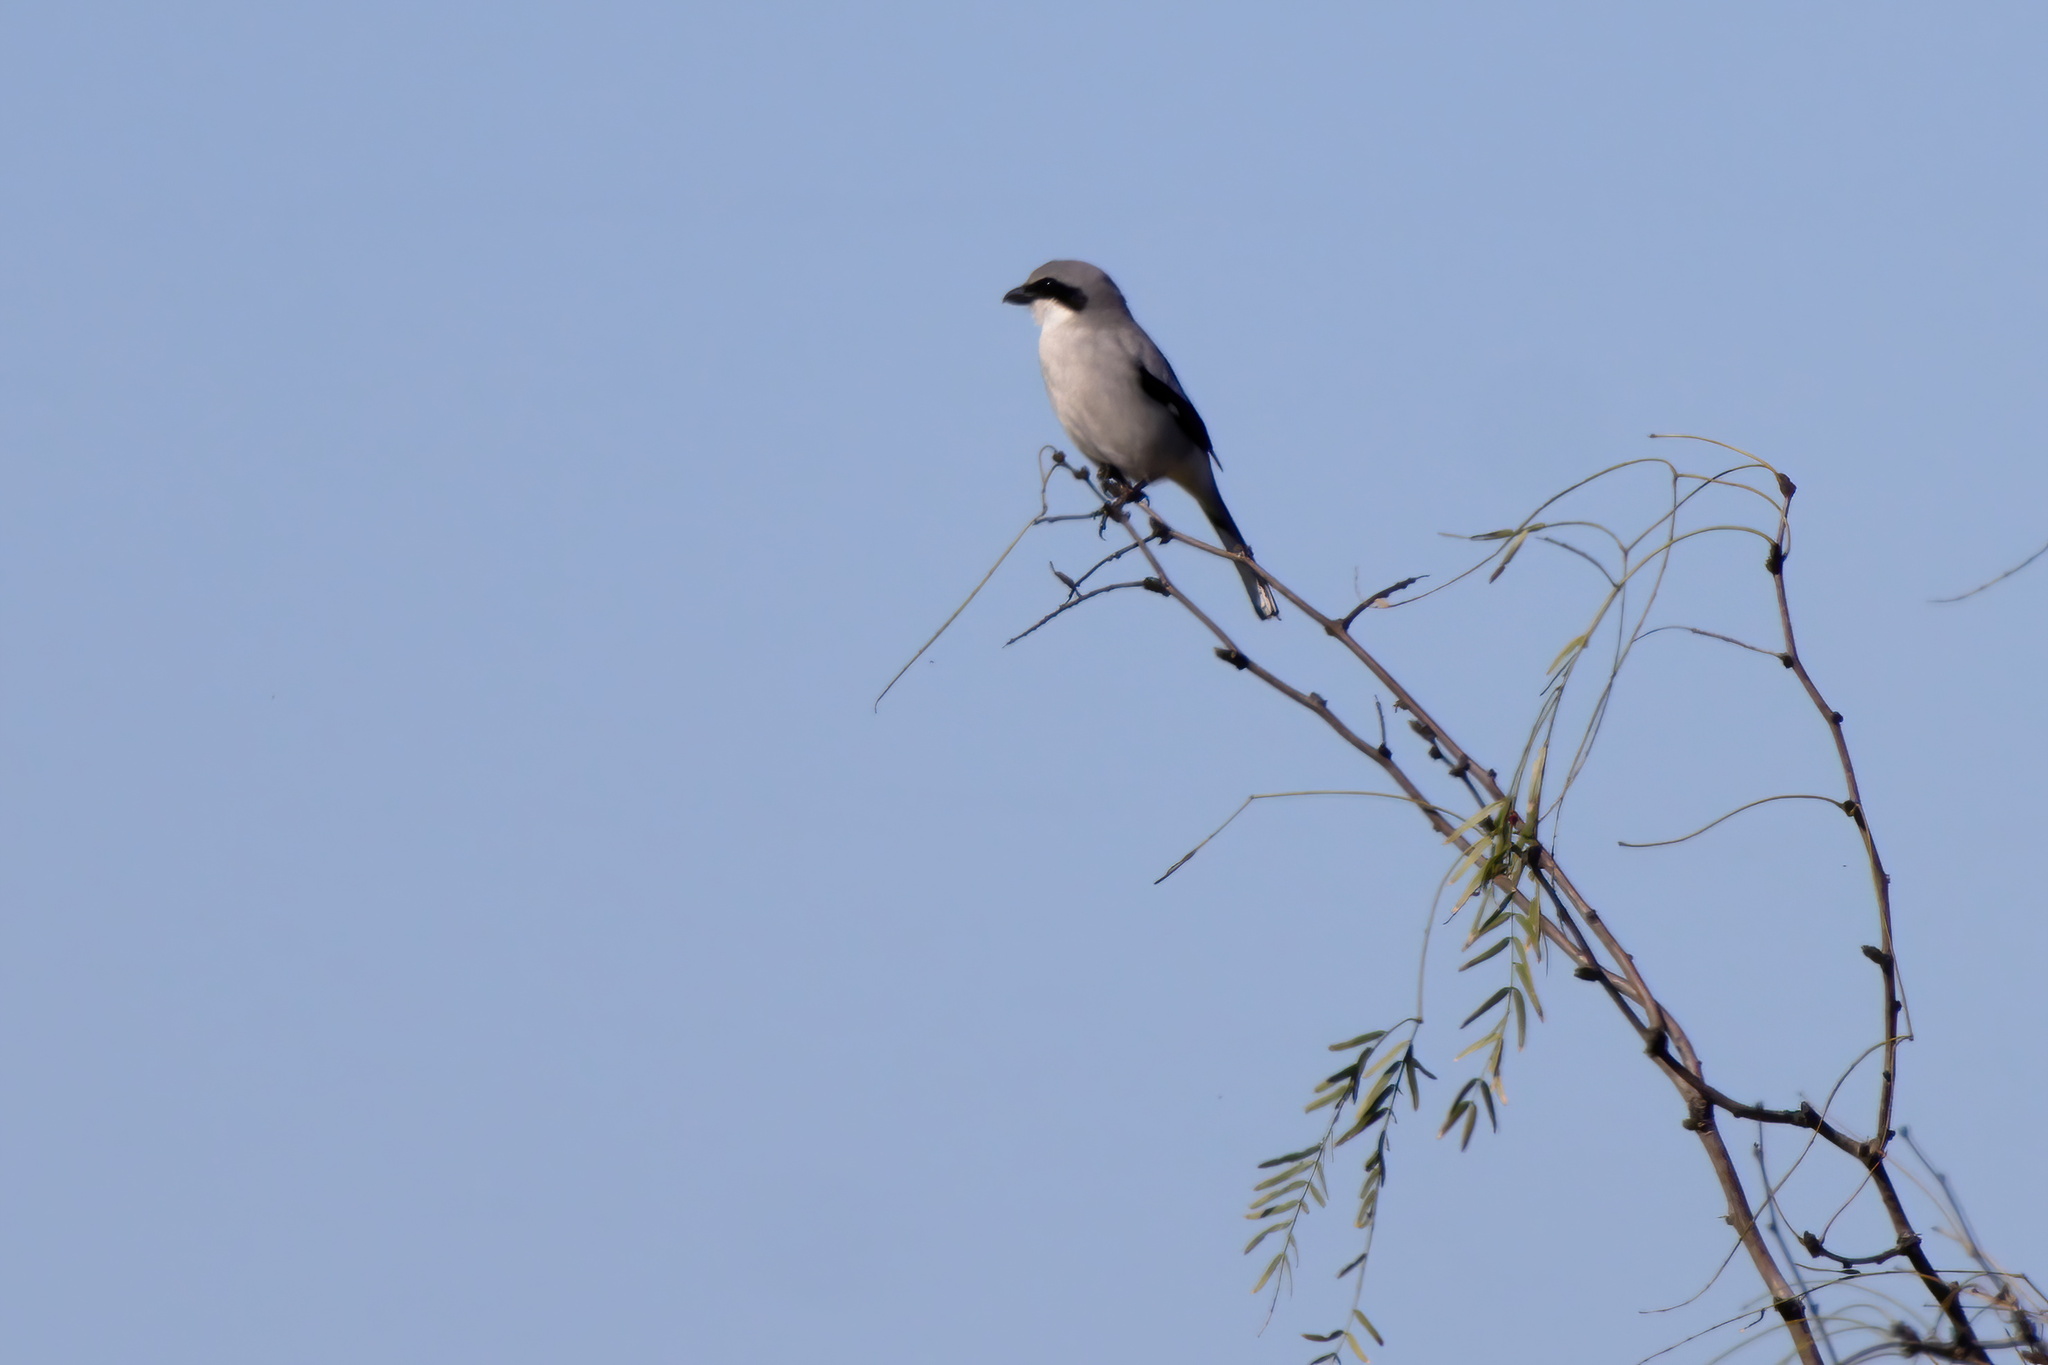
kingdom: Animalia
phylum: Chordata
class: Aves
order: Passeriformes
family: Laniidae
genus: Lanius
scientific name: Lanius ludovicianus
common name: Loggerhead shrike
